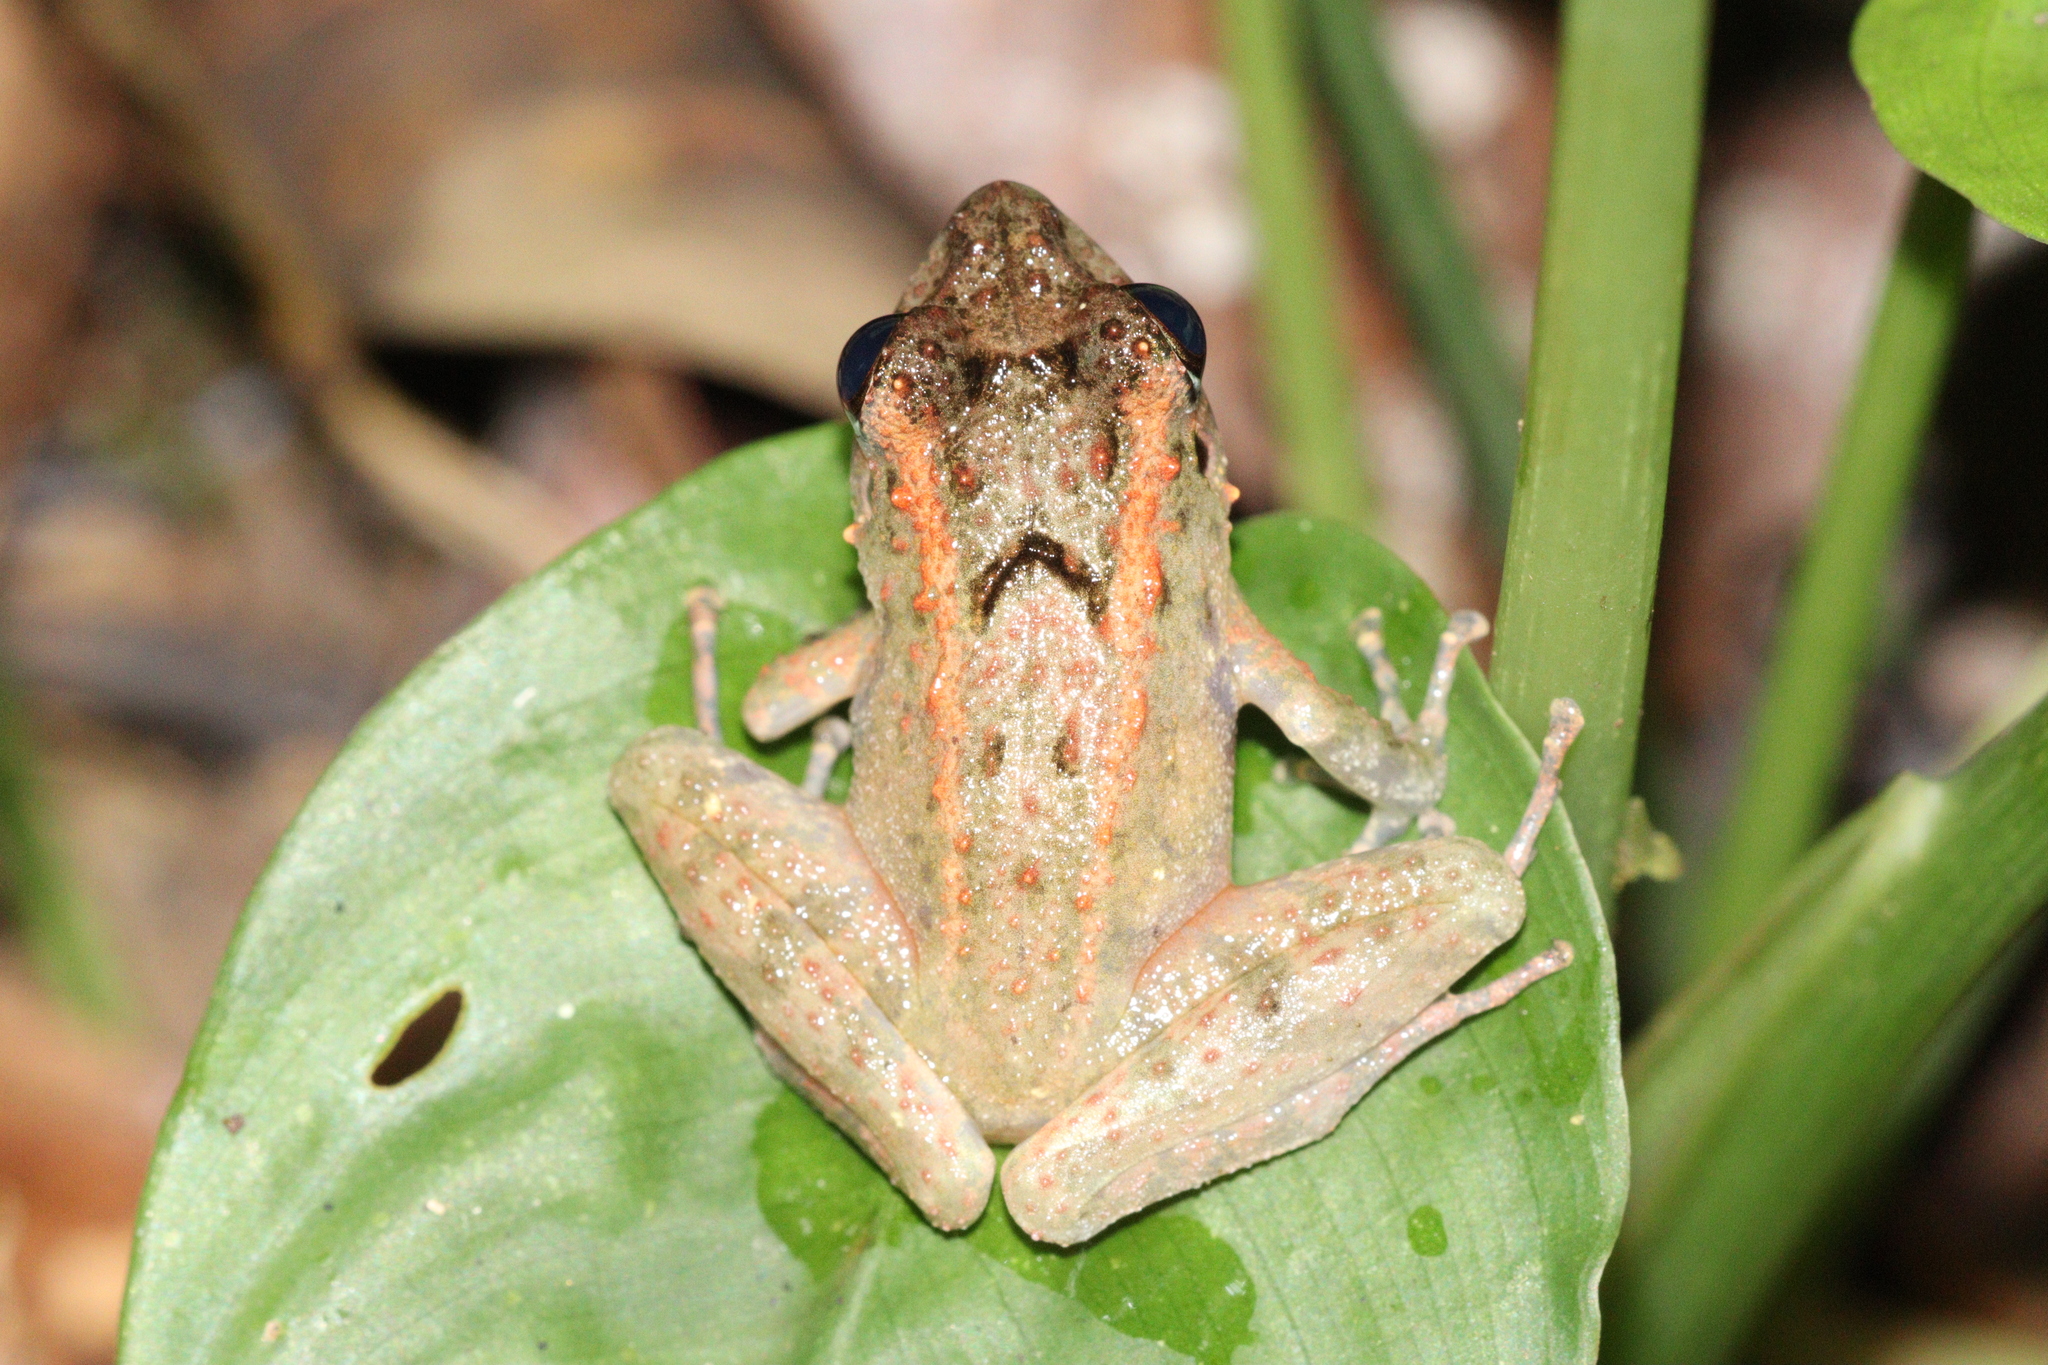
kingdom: Animalia
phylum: Chordata
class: Amphibia
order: Anura
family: Dicroglossidae
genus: Limnonectes
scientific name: Limnonectes leytensis
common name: Leyte wart frog
